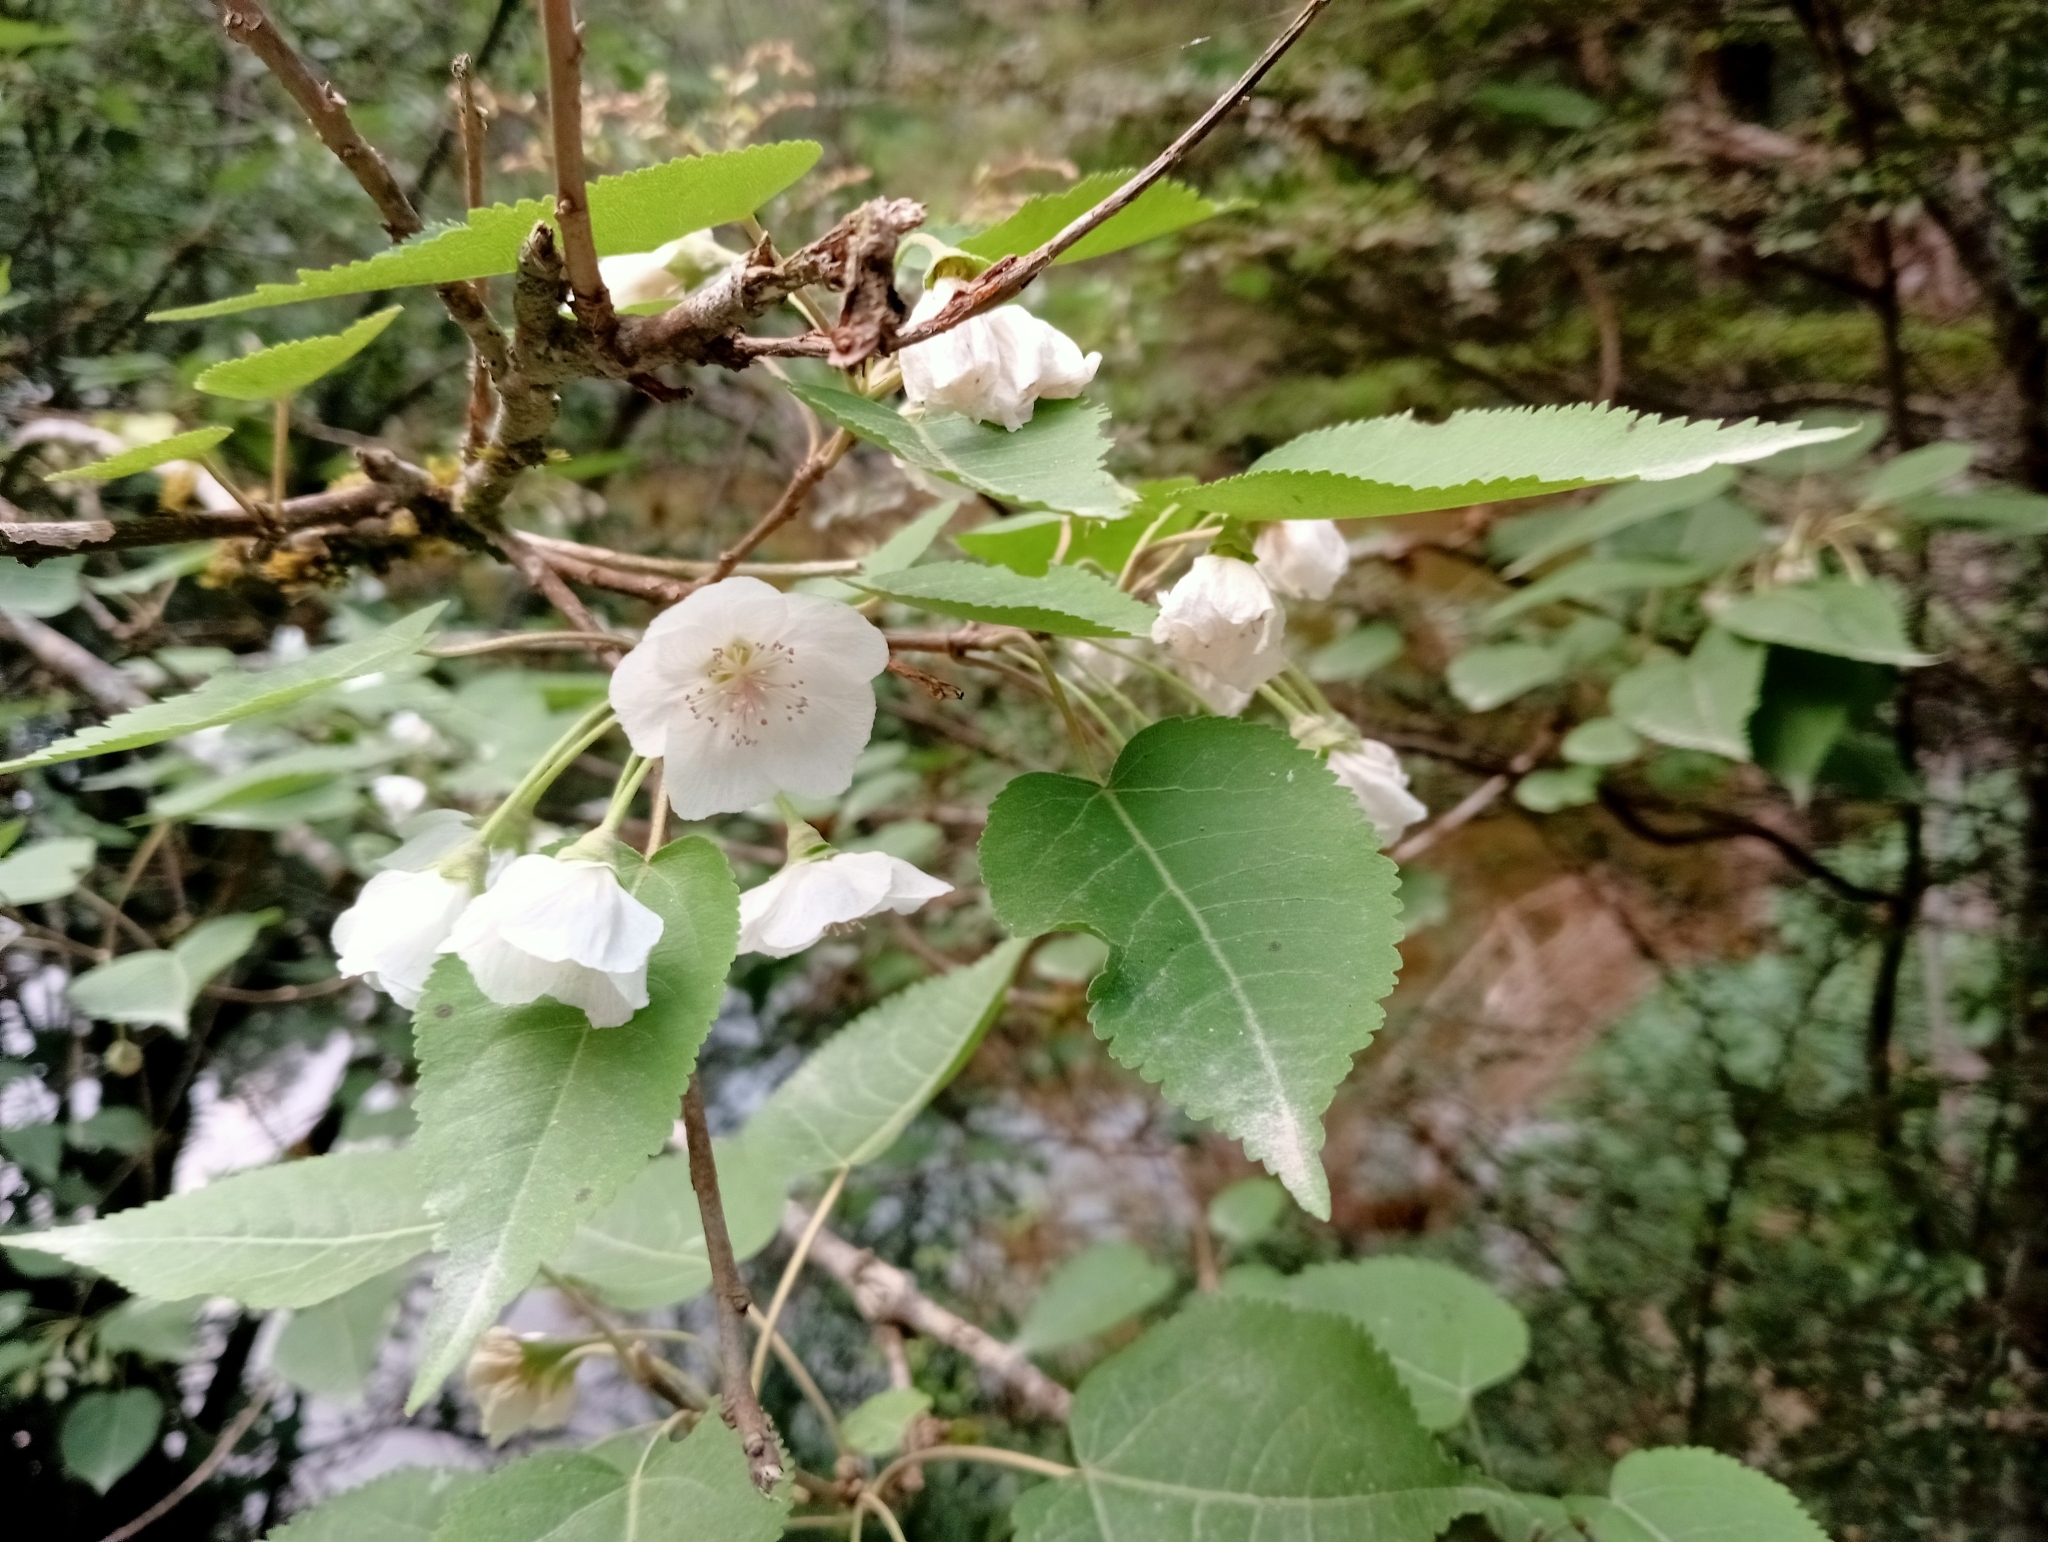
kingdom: Plantae
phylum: Tracheophyta
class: Magnoliopsida
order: Malvales
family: Malvaceae
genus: Hoheria
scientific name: Hoheria lyallii
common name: Lacebark
